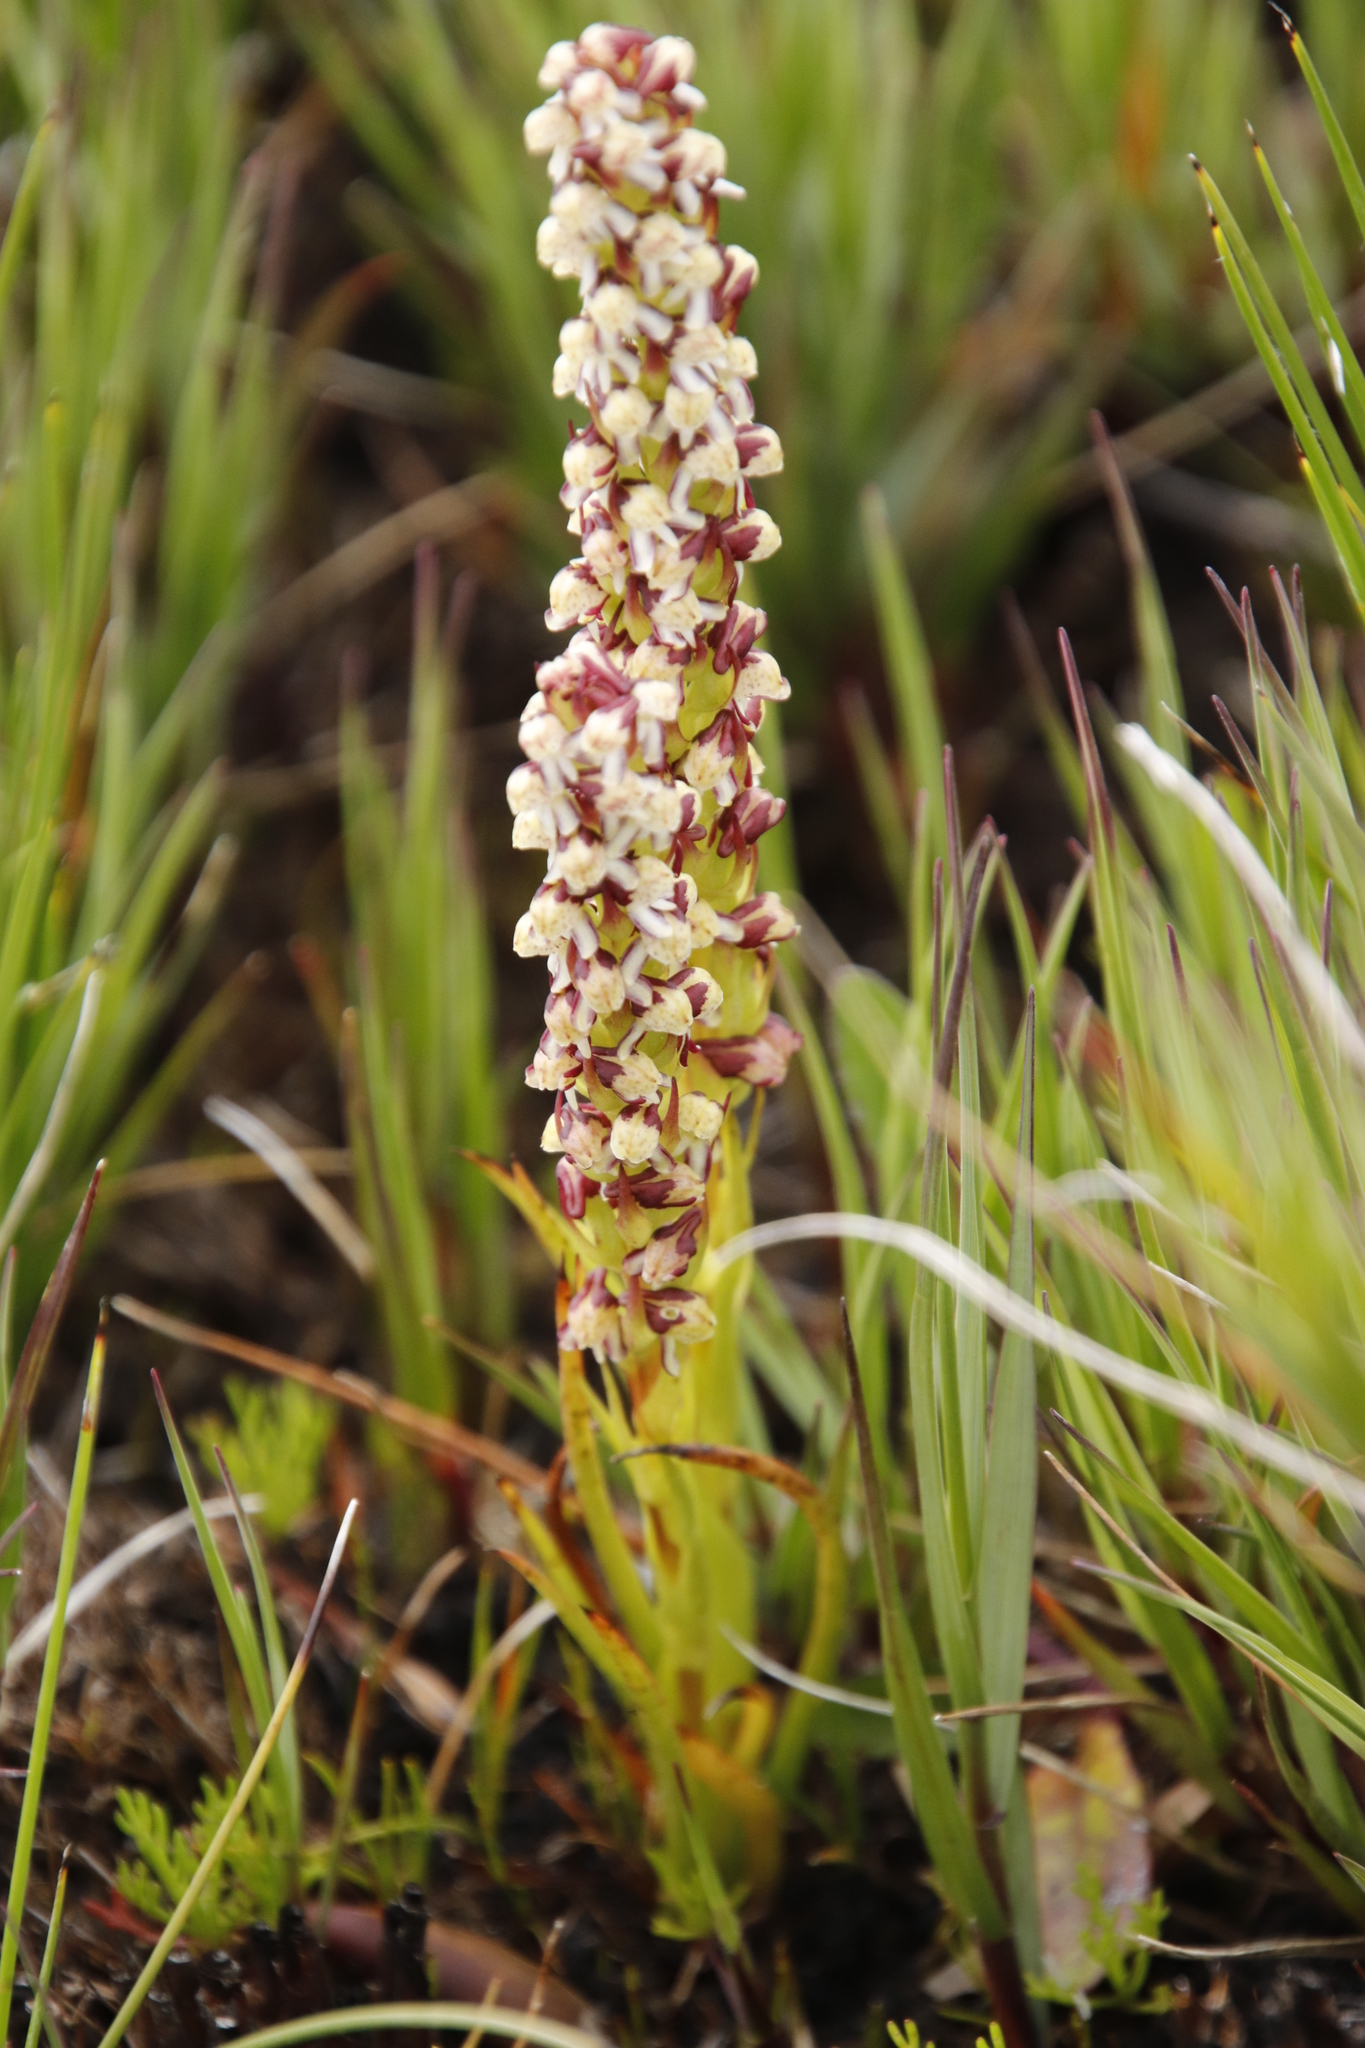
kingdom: Plantae
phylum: Tracheophyta
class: Liliopsida
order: Asparagales
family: Orchidaceae
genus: Disa
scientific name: Disa obtusa
